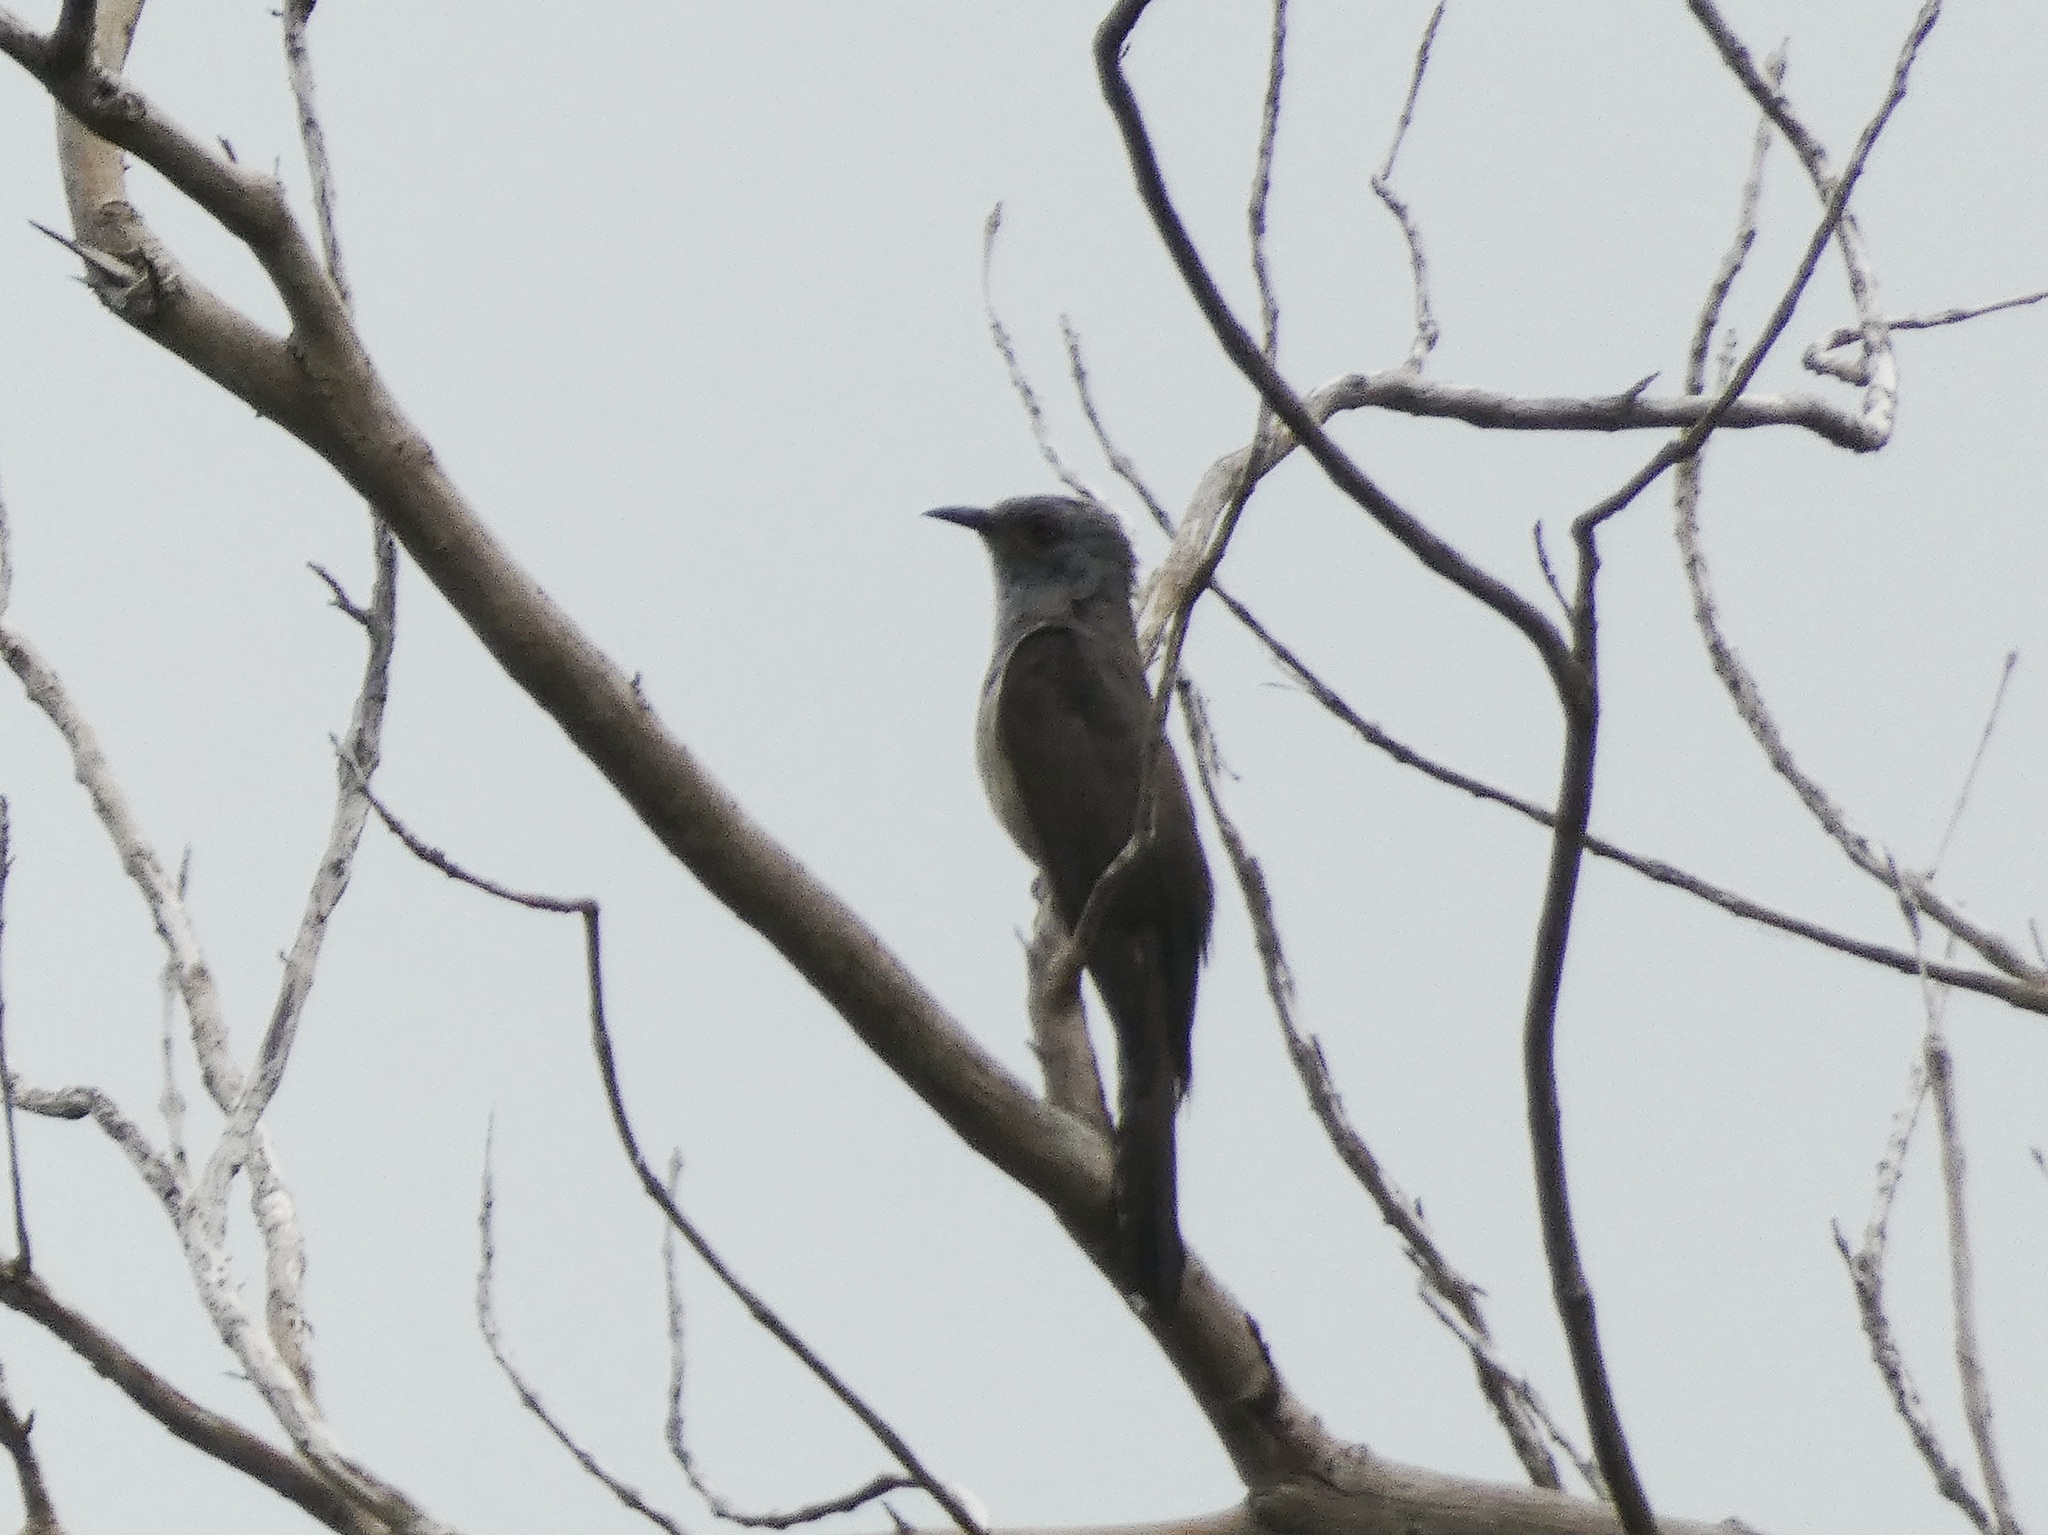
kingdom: Animalia
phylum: Chordata
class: Aves
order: Cuculiformes
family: Cuculidae
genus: Chrysococcyx
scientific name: Chrysococcyx minutillus
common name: Little bronze cuckoo
